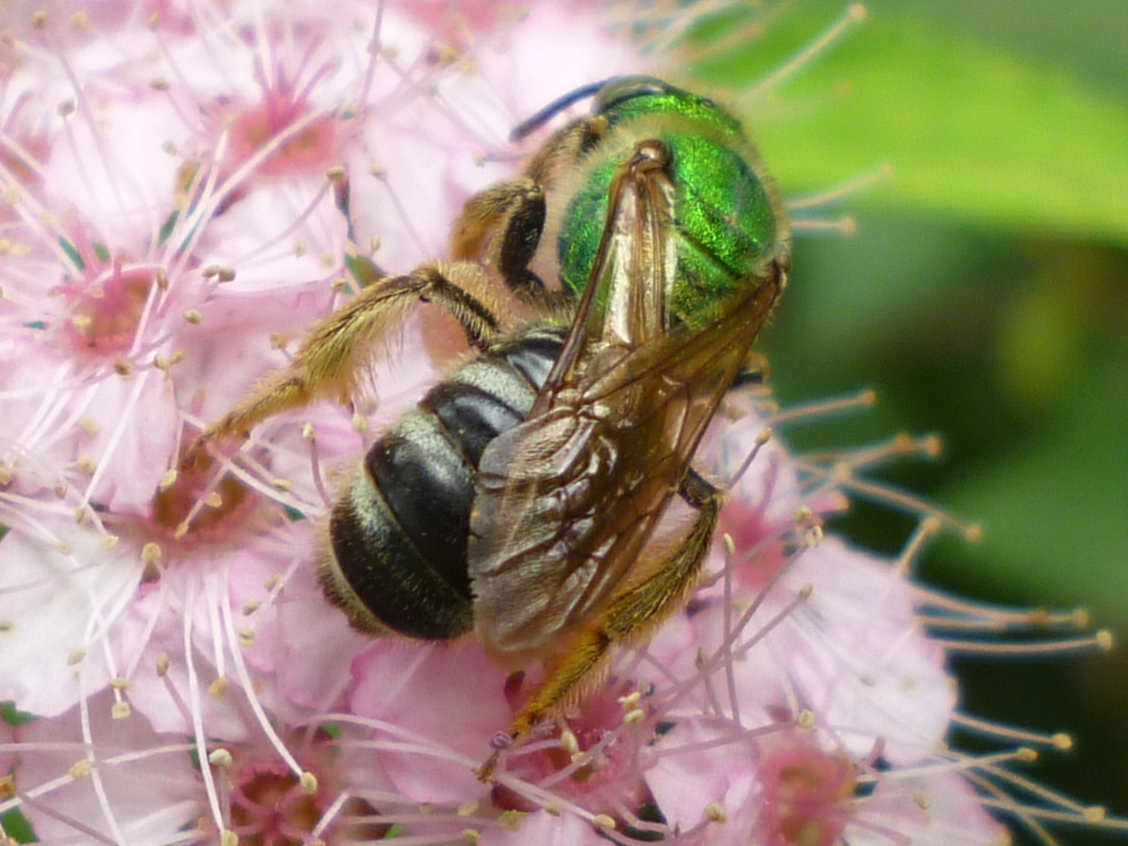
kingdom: Animalia
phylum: Arthropoda
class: Insecta
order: Hymenoptera
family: Halictidae
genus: Agapostemon
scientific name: Agapostemon virescens
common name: Bicolored striped sweat bee
